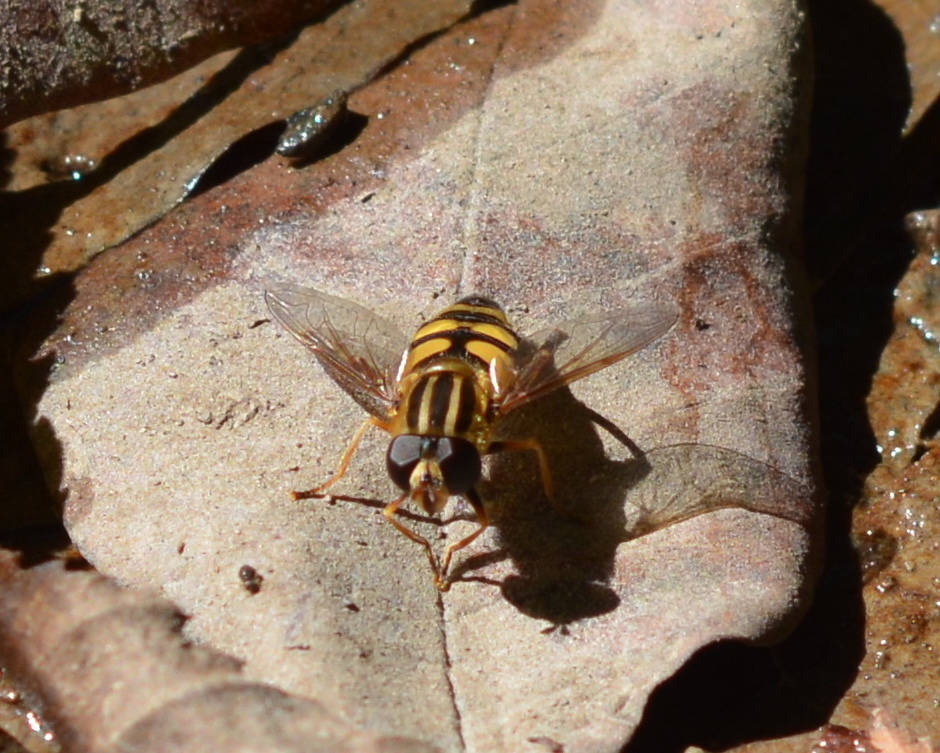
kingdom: Animalia
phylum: Arthropoda
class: Insecta
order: Diptera
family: Syrphidae
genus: Helophilus
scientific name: Helophilus fasciatus
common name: Narrow-headed marsh fly
